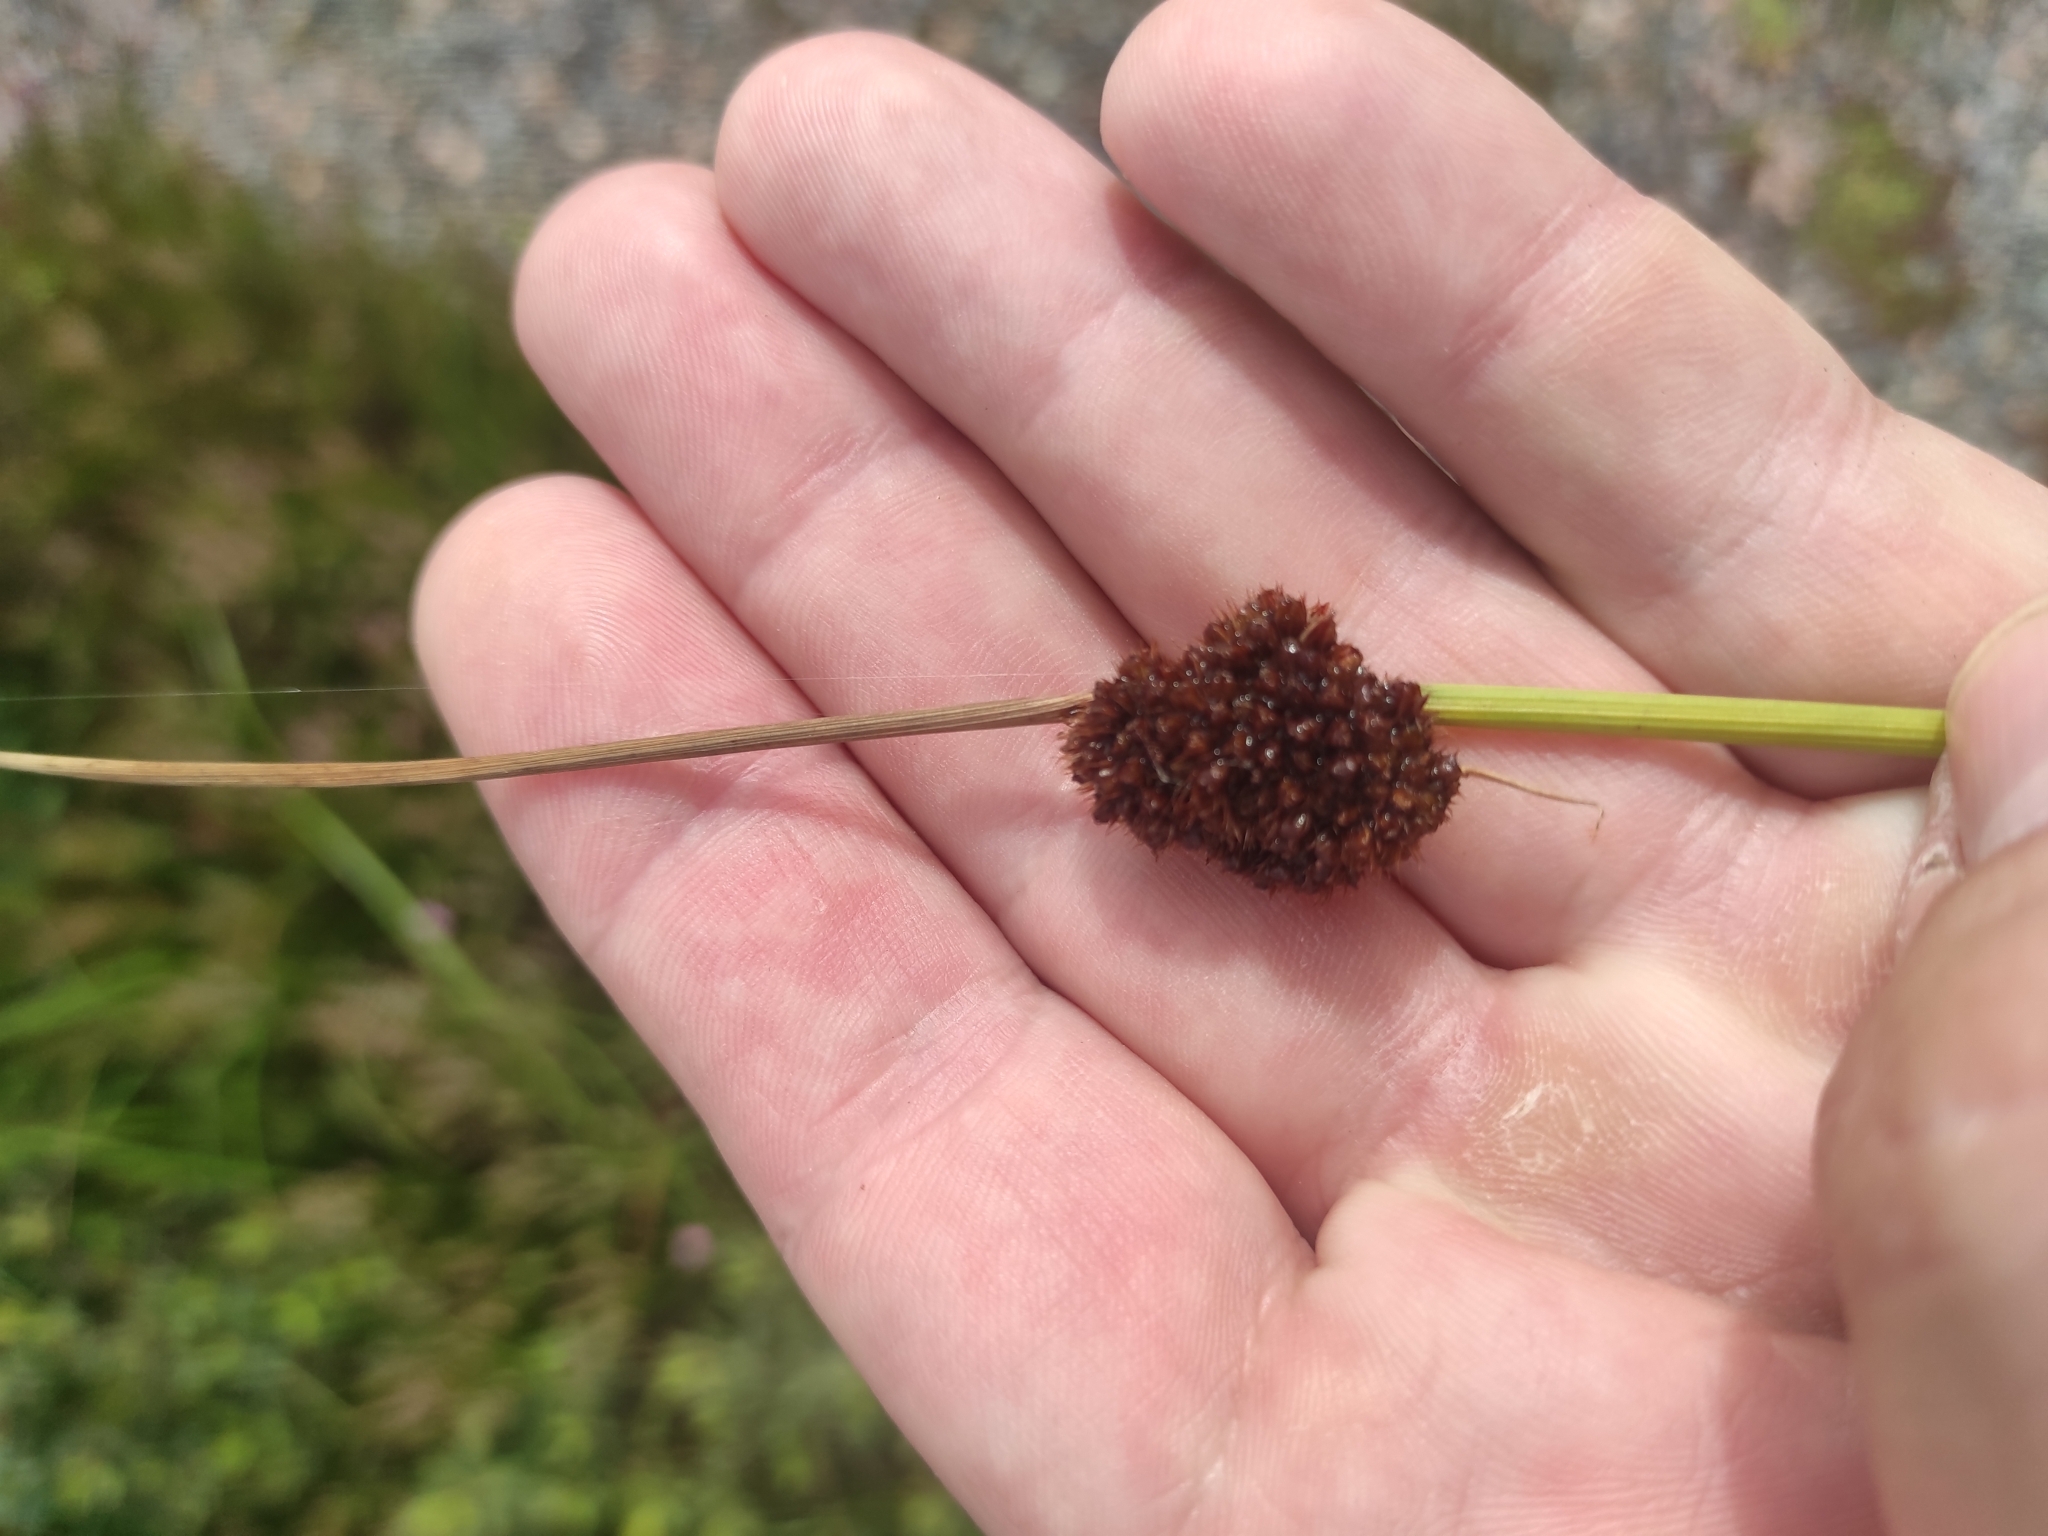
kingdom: Plantae
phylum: Tracheophyta
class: Liliopsida
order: Poales
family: Juncaceae
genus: Juncus
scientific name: Juncus conglomeratus
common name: Compact rush
